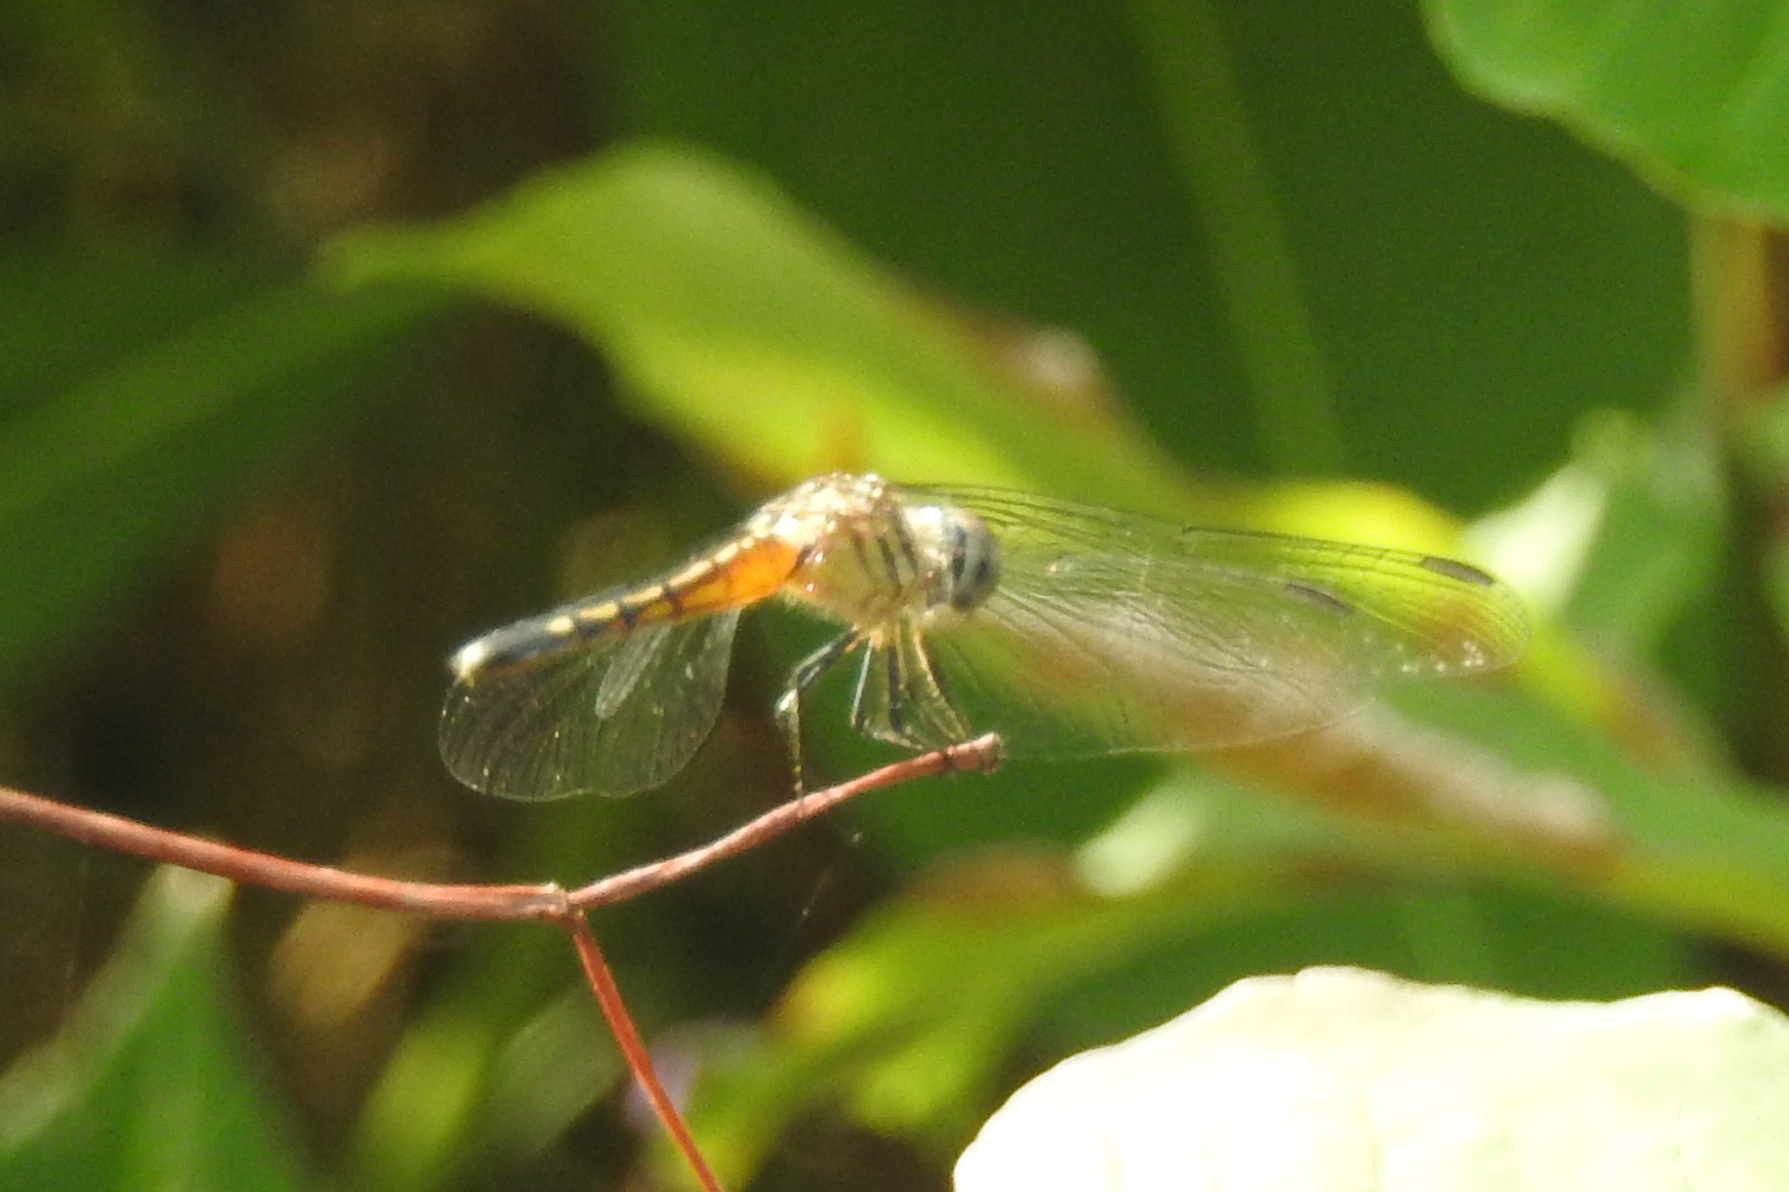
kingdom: Animalia
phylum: Arthropoda
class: Insecta
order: Odonata
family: Libellulidae
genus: Pachydiplax
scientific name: Pachydiplax longipennis
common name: Blue dasher
